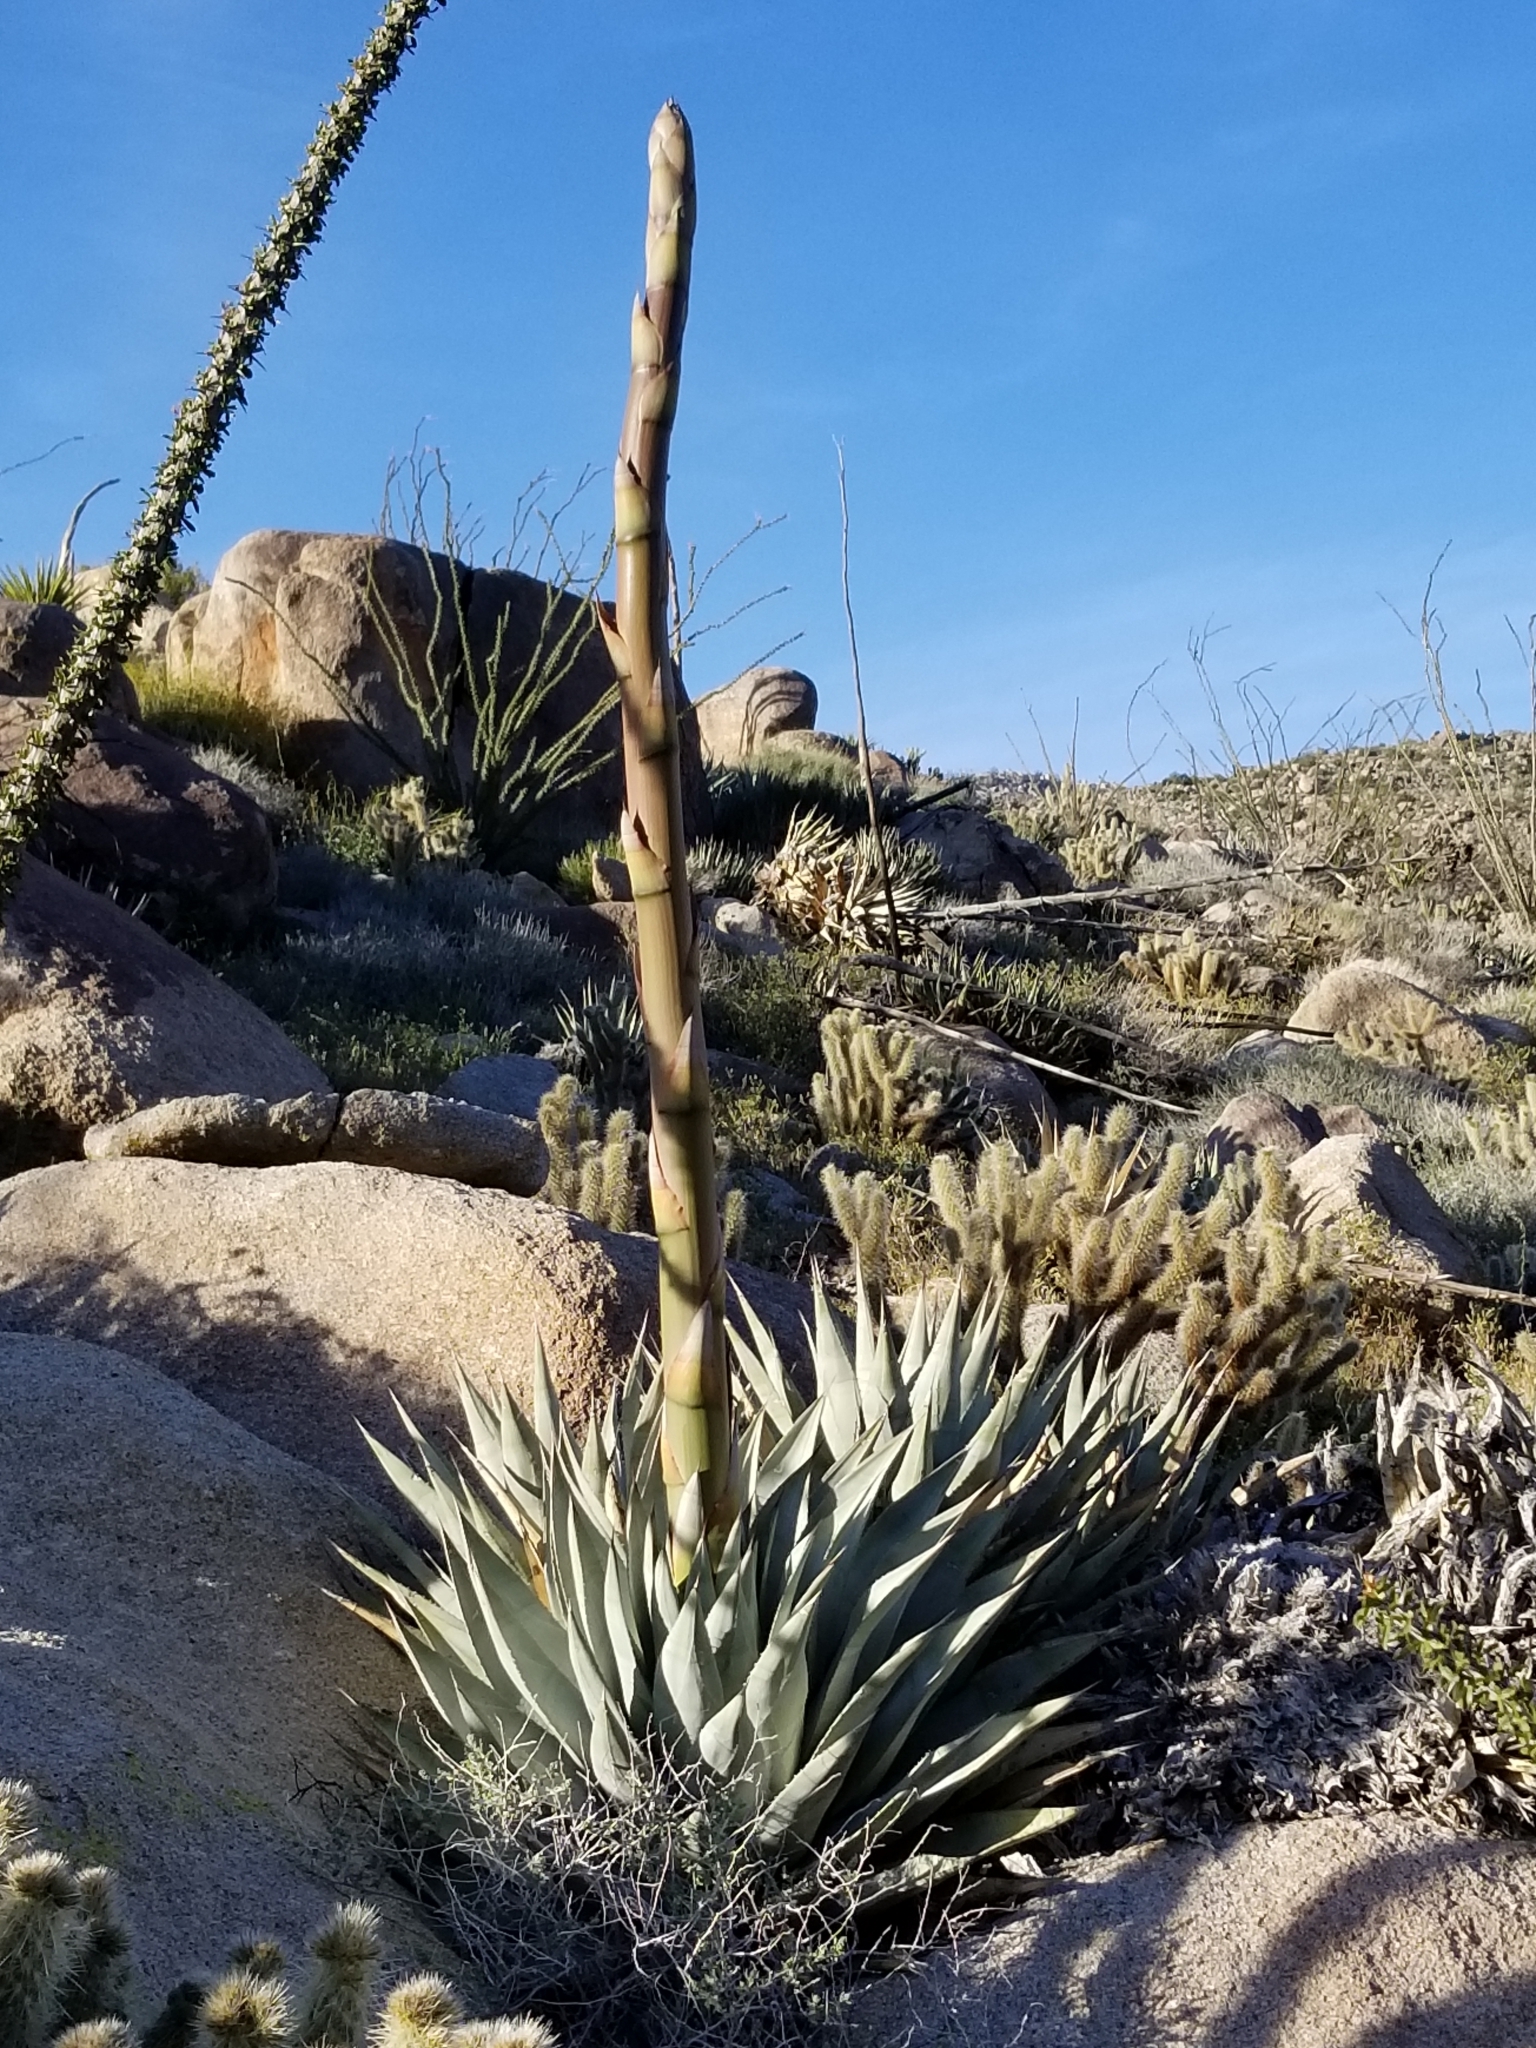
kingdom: Plantae
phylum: Tracheophyta
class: Liliopsida
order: Asparagales
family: Asparagaceae
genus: Agave
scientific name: Agave deserti
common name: Desert agave
